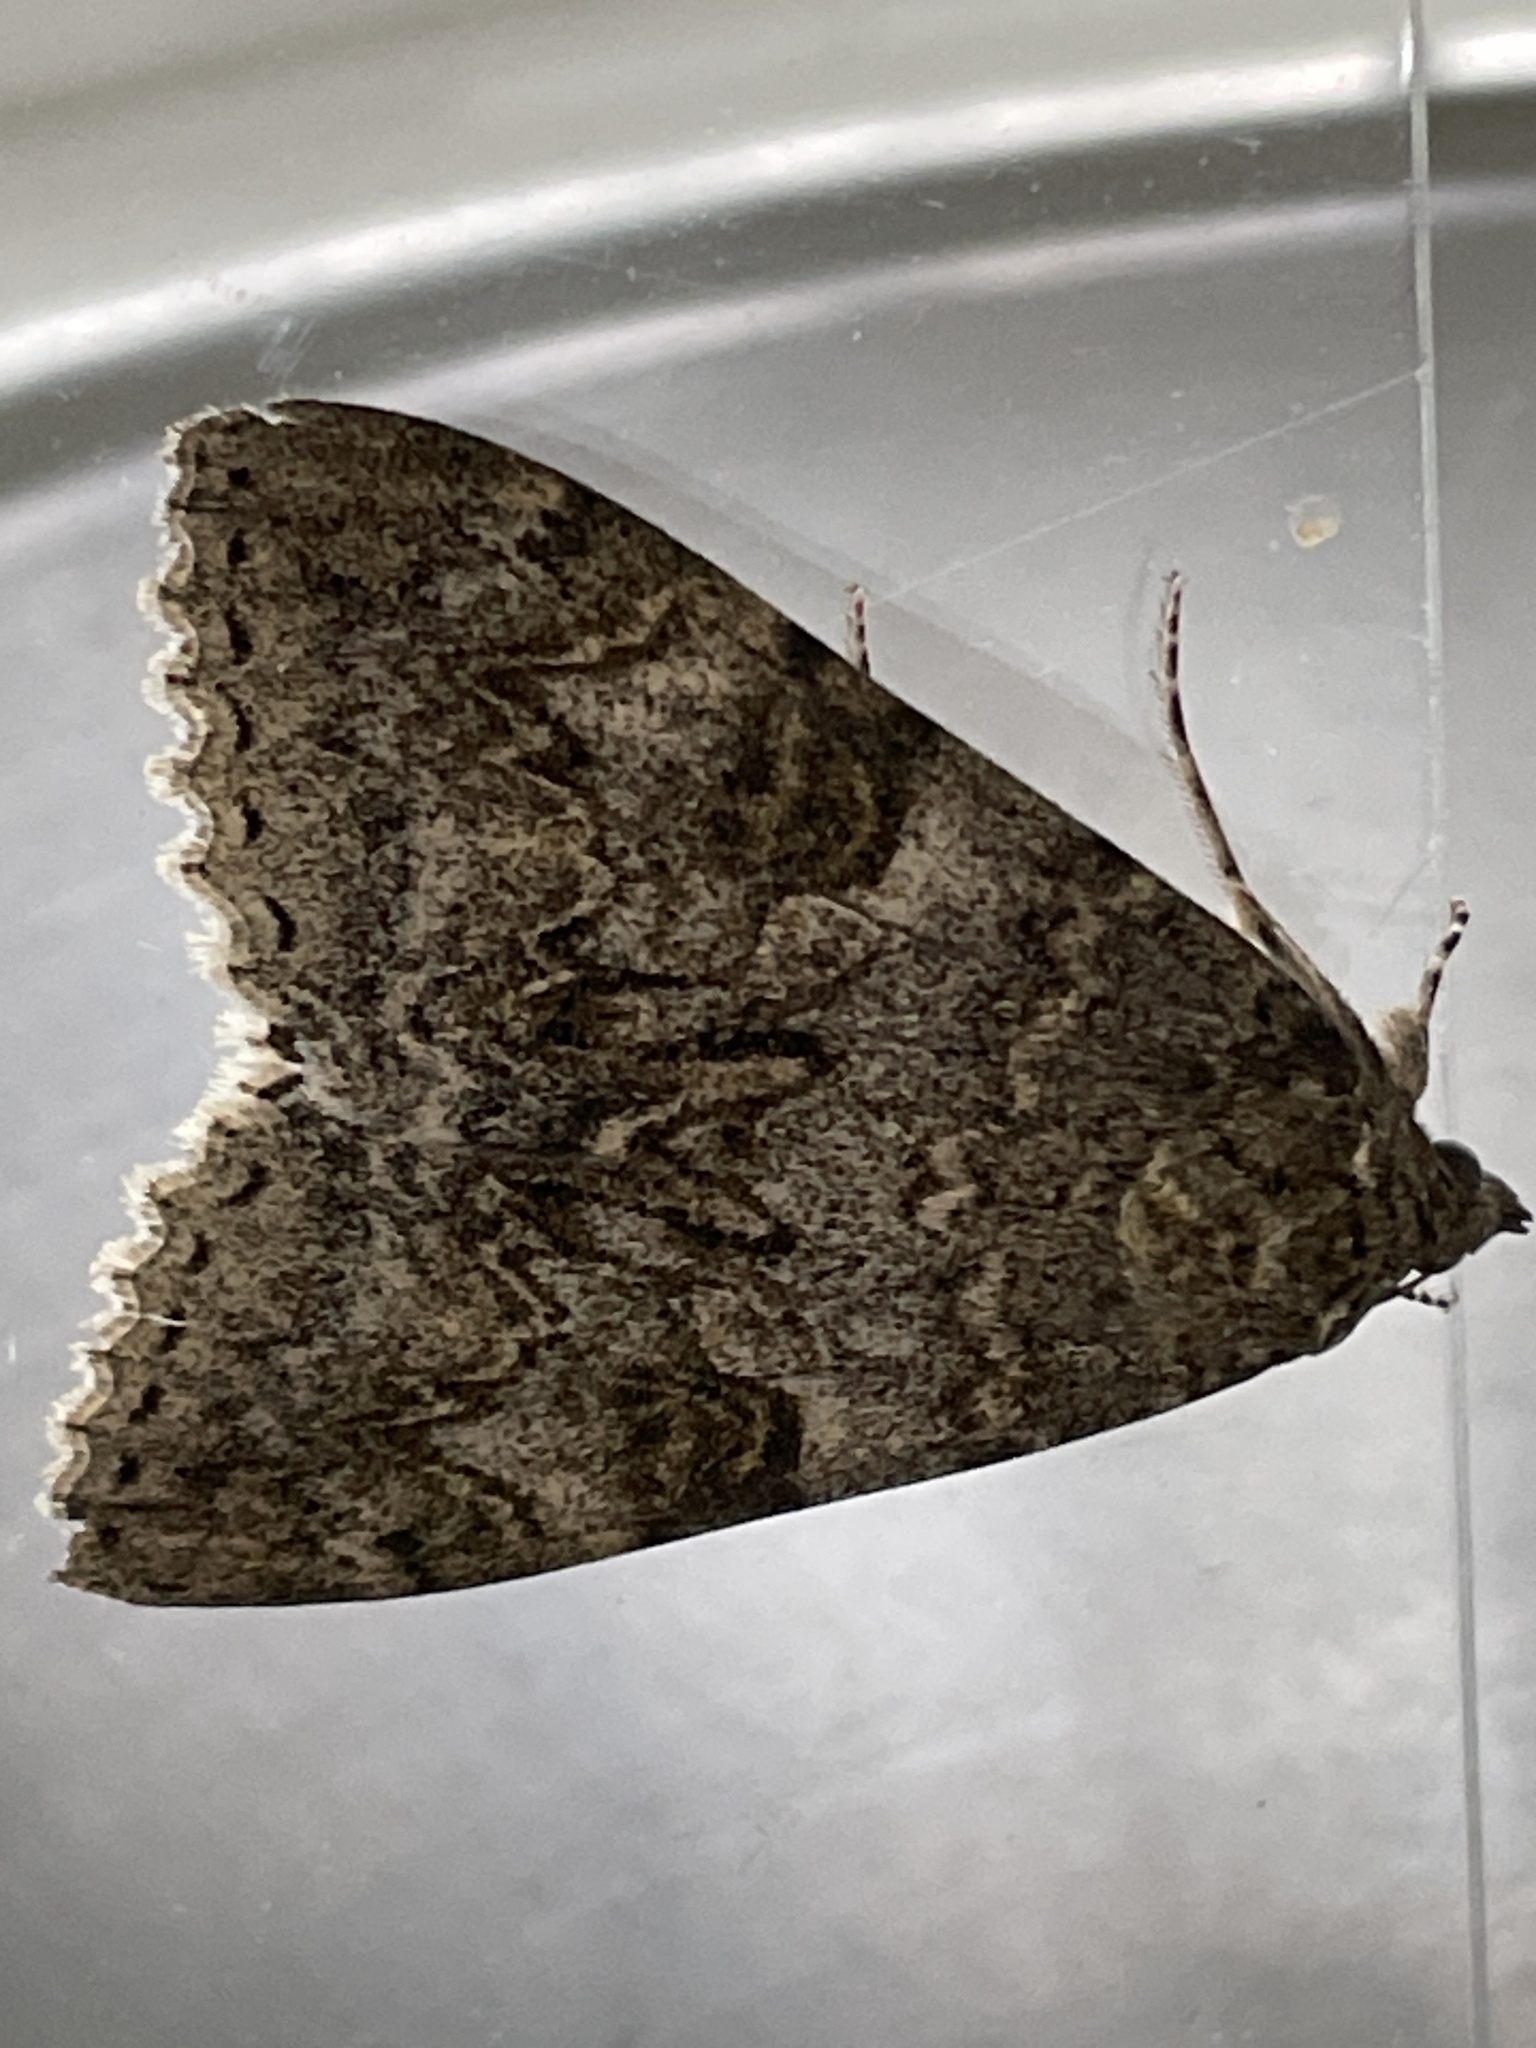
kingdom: Animalia
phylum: Arthropoda
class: Insecta
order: Lepidoptera
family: Erebidae
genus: Catocala
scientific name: Catocala nupta
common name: Red underwing
